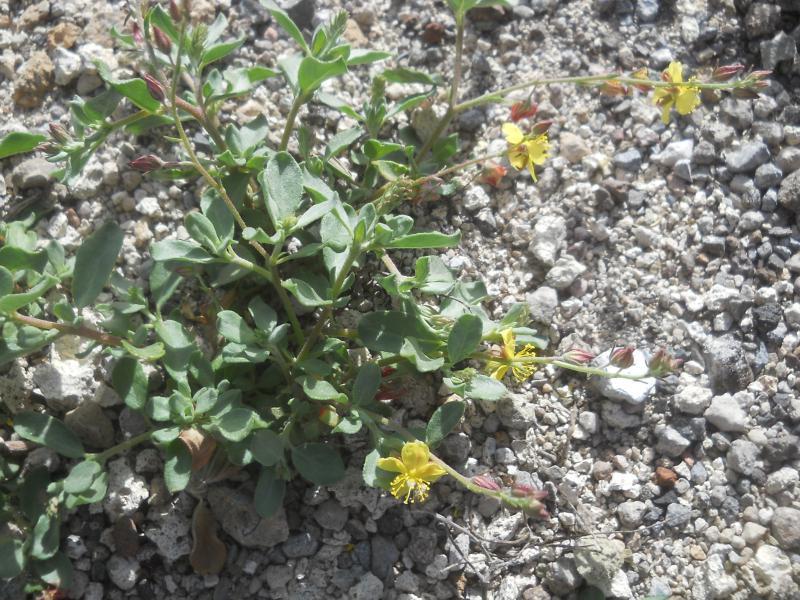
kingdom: Plantae
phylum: Tracheophyta
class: Magnoliopsida
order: Malvales
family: Cistaceae
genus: Helianthemum
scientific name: Helianthemum canariense
